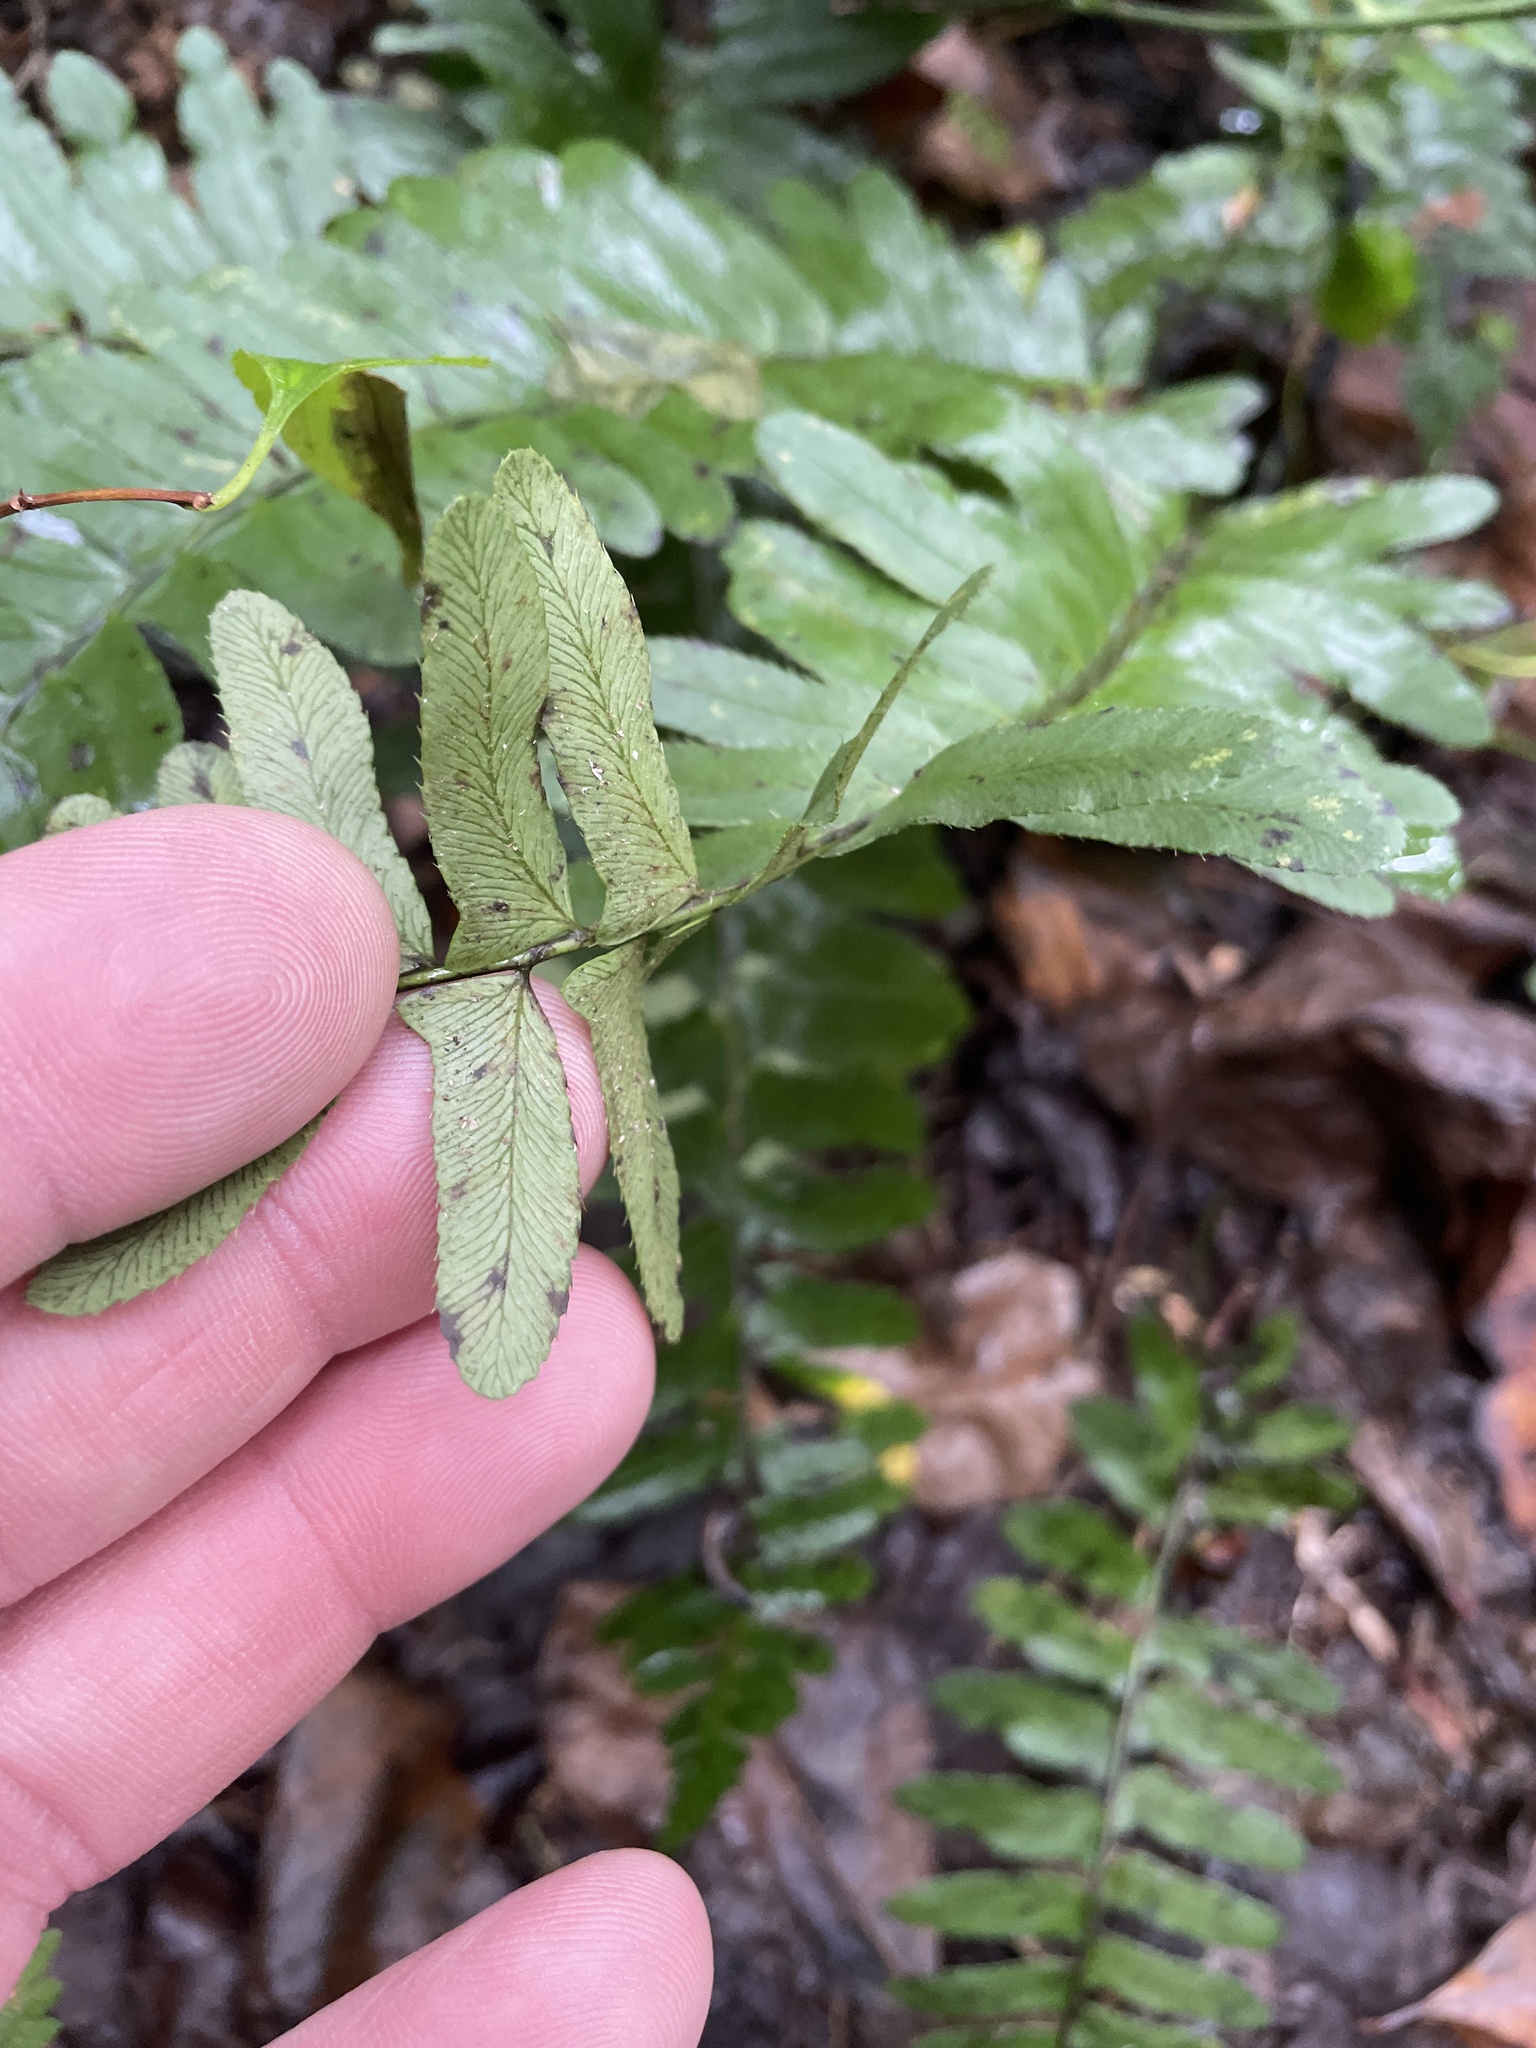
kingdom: Plantae
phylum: Tracheophyta
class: Polypodiopsida
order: Polypodiales
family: Dryopteridaceae
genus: Polystichum
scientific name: Polystichum acrostichoides
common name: Christmas fern
